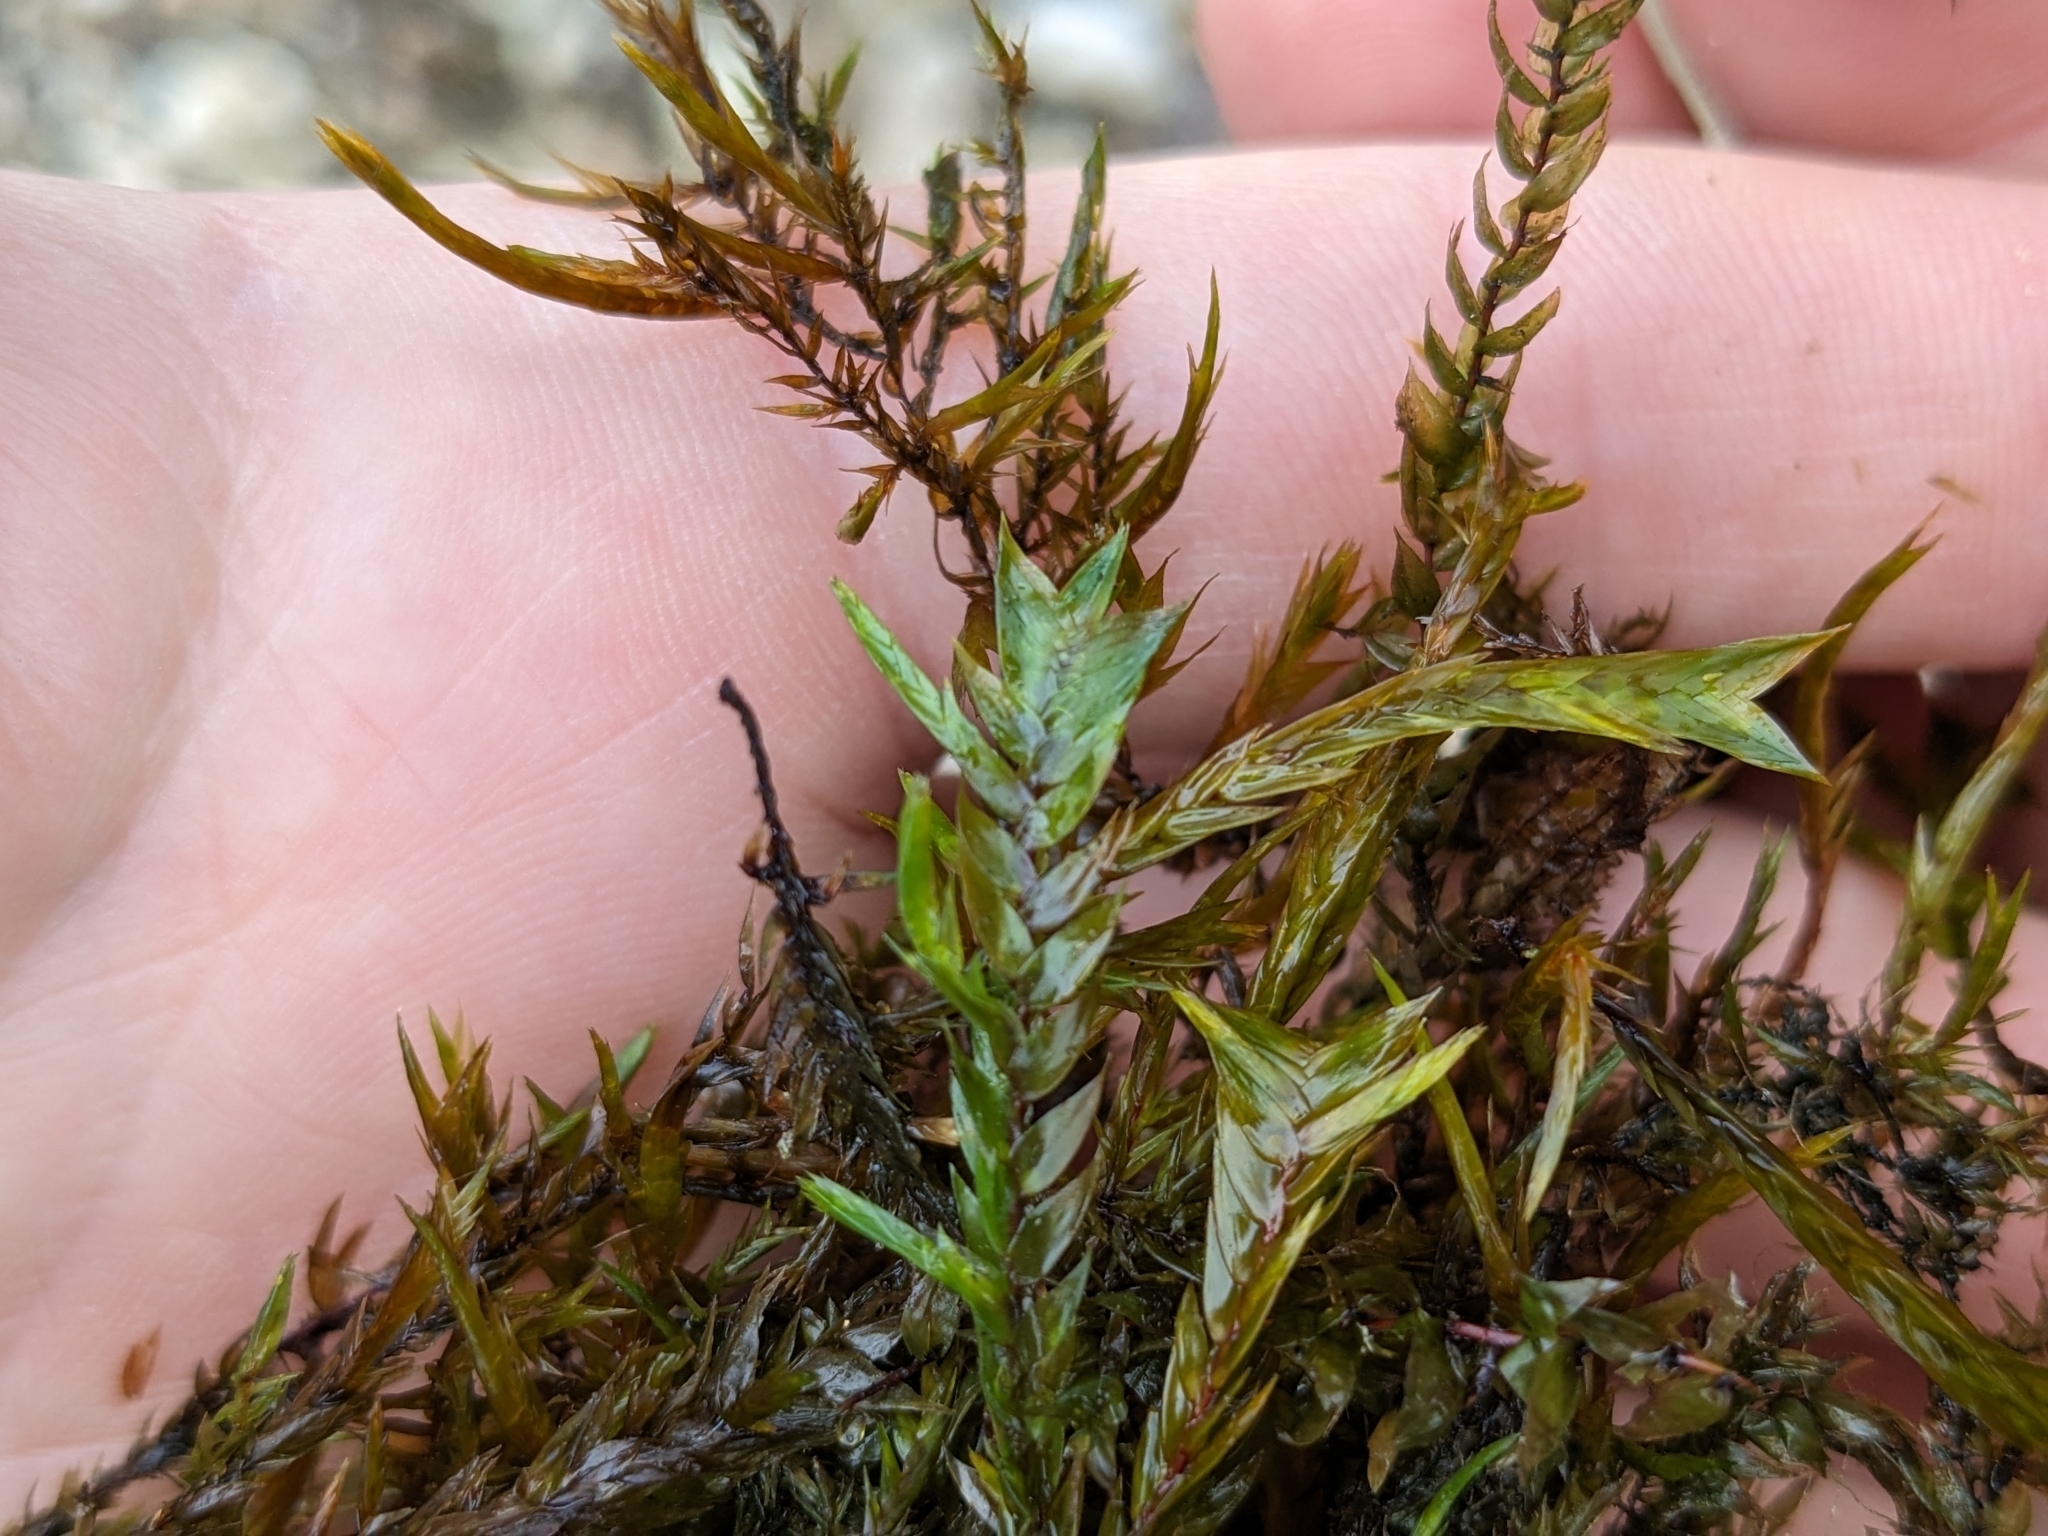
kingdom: Plantae
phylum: Bryophyta
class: Bryopsida
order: Hypnales
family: Fontinalaceae
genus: Fontinalis
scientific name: Fontinalis antipyretica
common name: Greater water-moss
